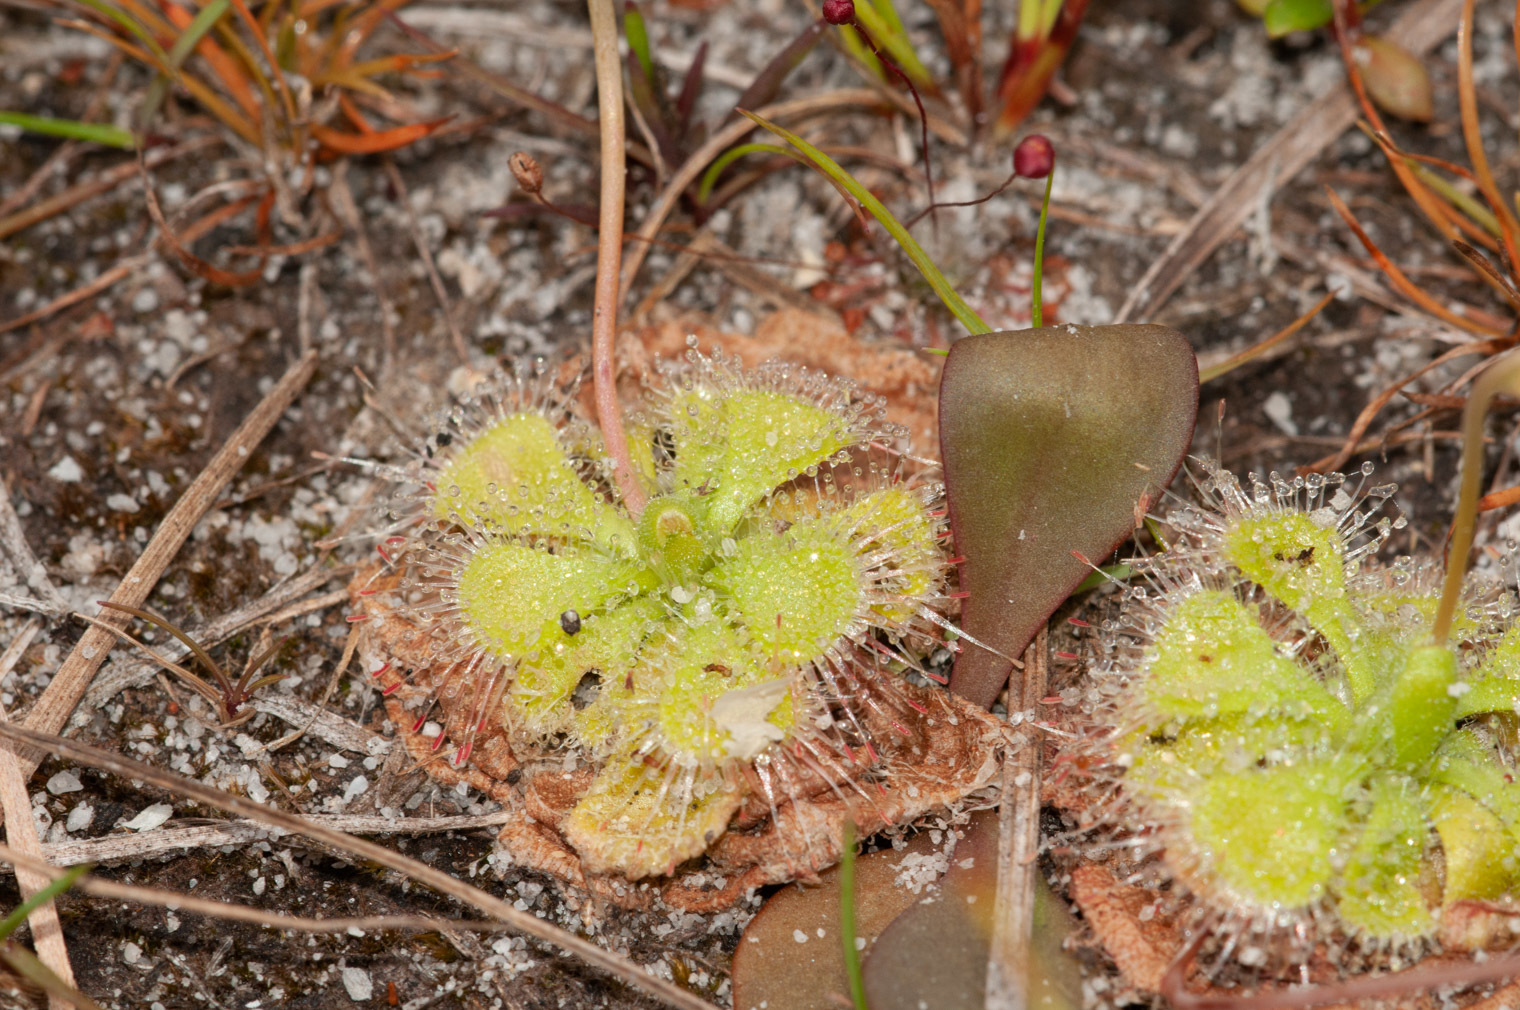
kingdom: Plantae
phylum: Tracheophyta
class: Magnoliopsida
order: Caryophyllales
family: Droseraceae
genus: Drosera
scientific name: Drosera spatulata
